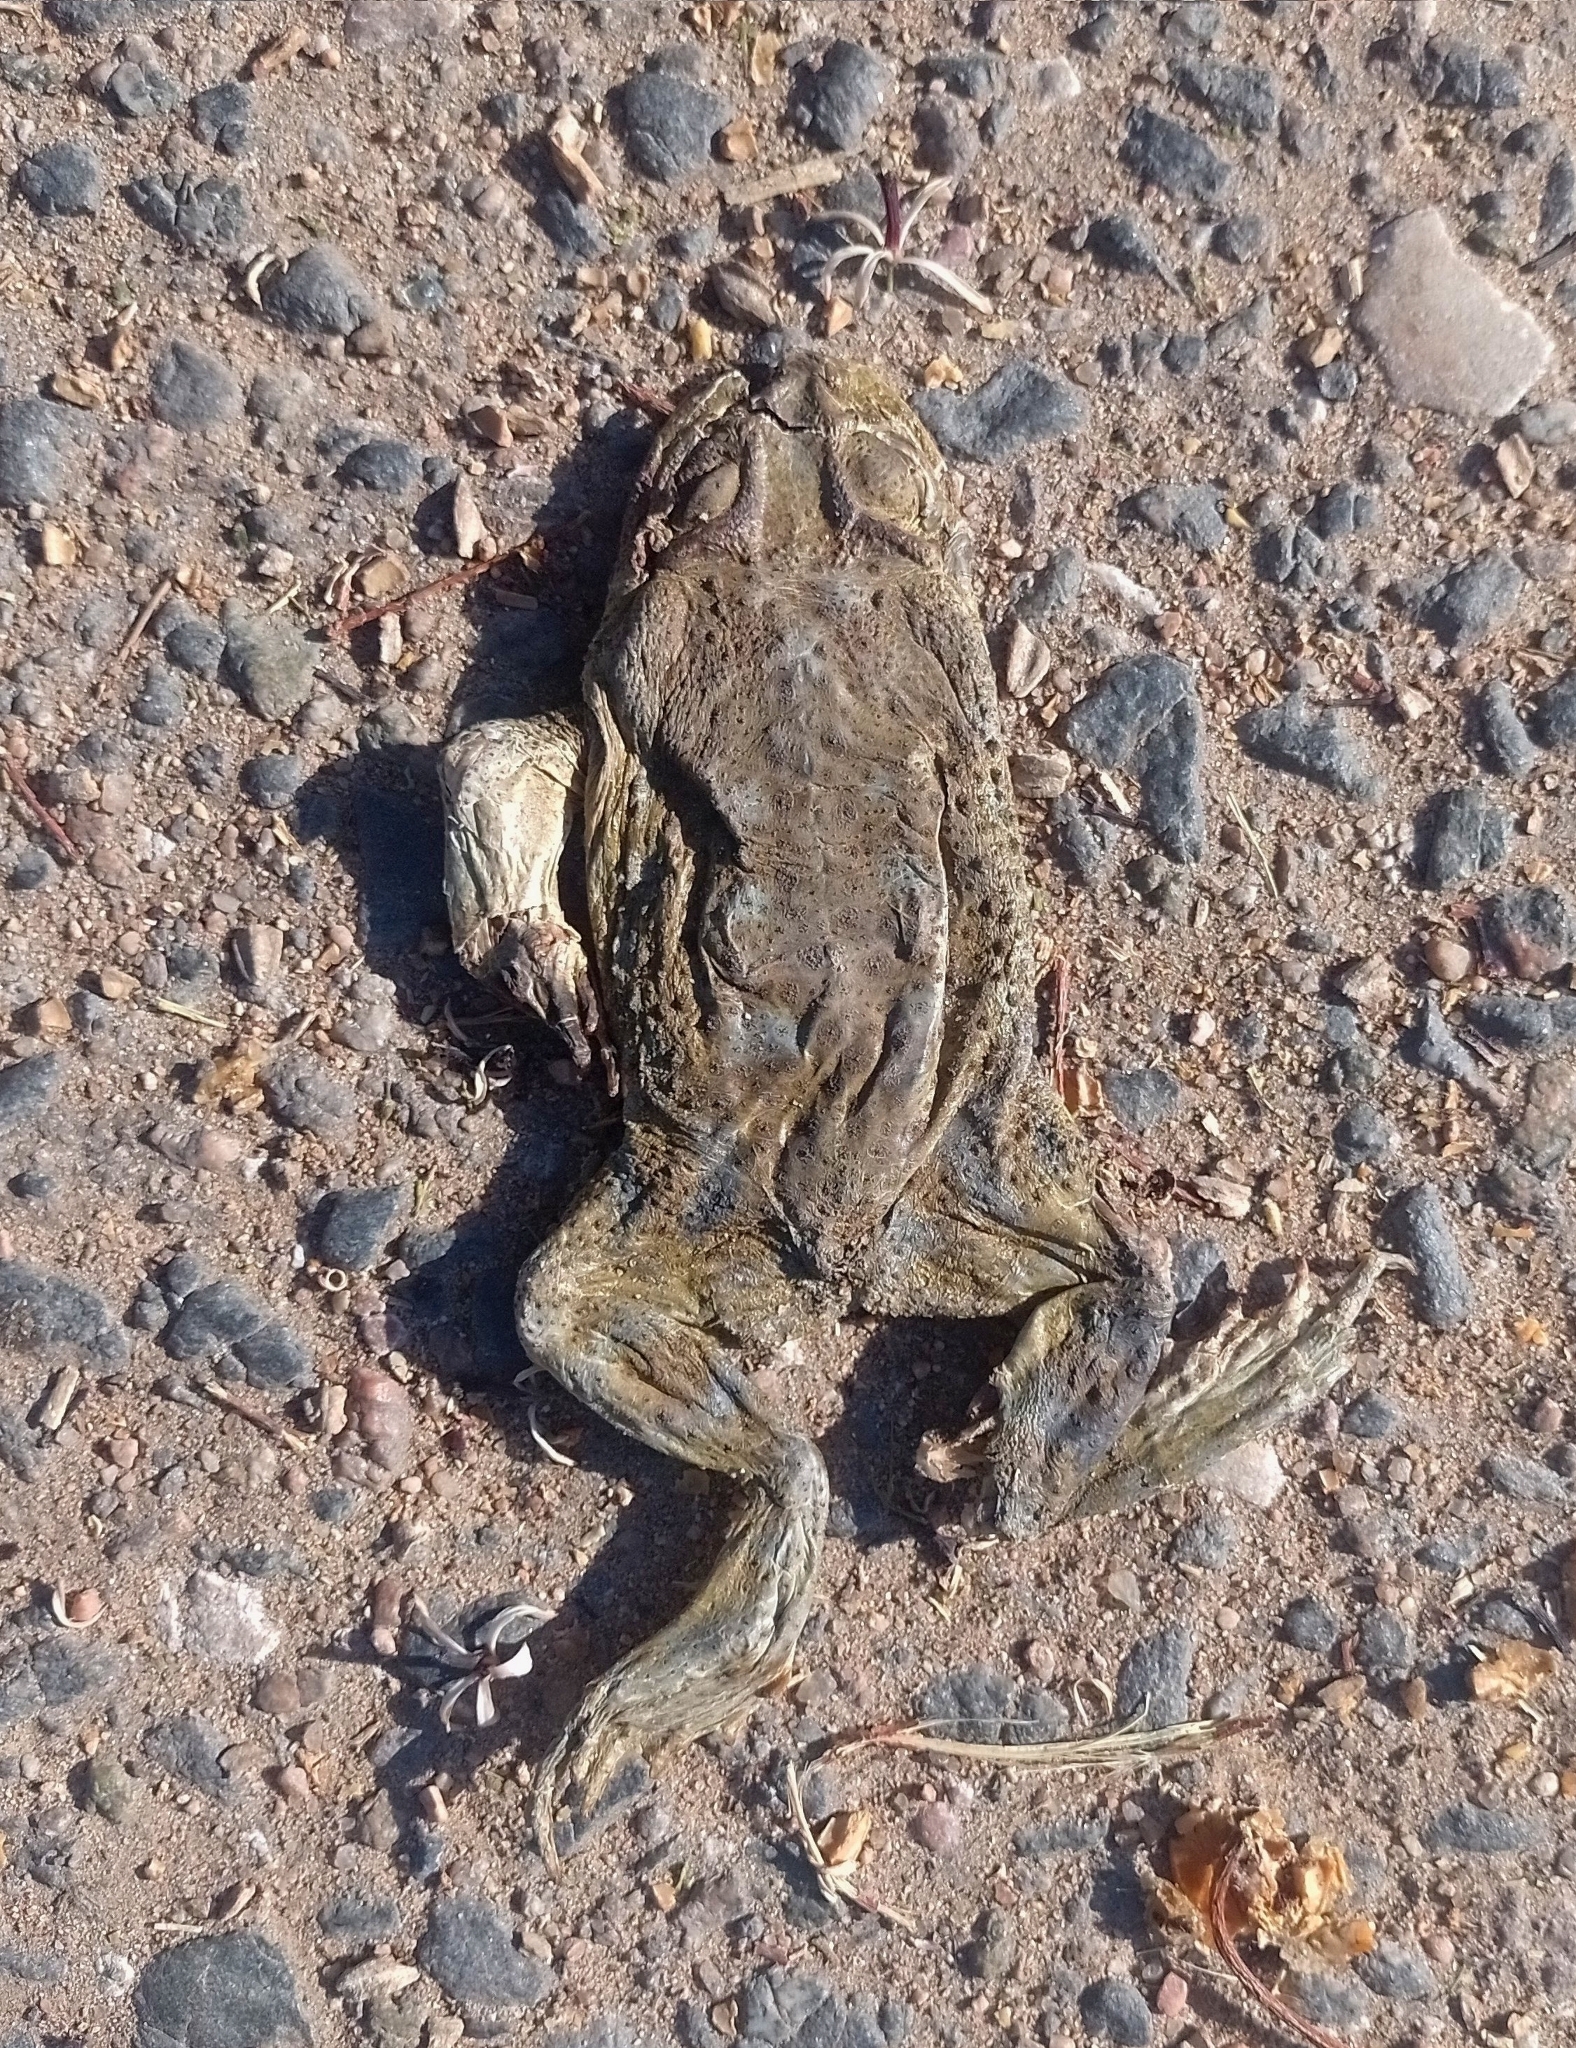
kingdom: Animalia
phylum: Chordata
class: Amphibia
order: Anura
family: Bufonidae
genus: Rhinella
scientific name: Rhinella arenarum
